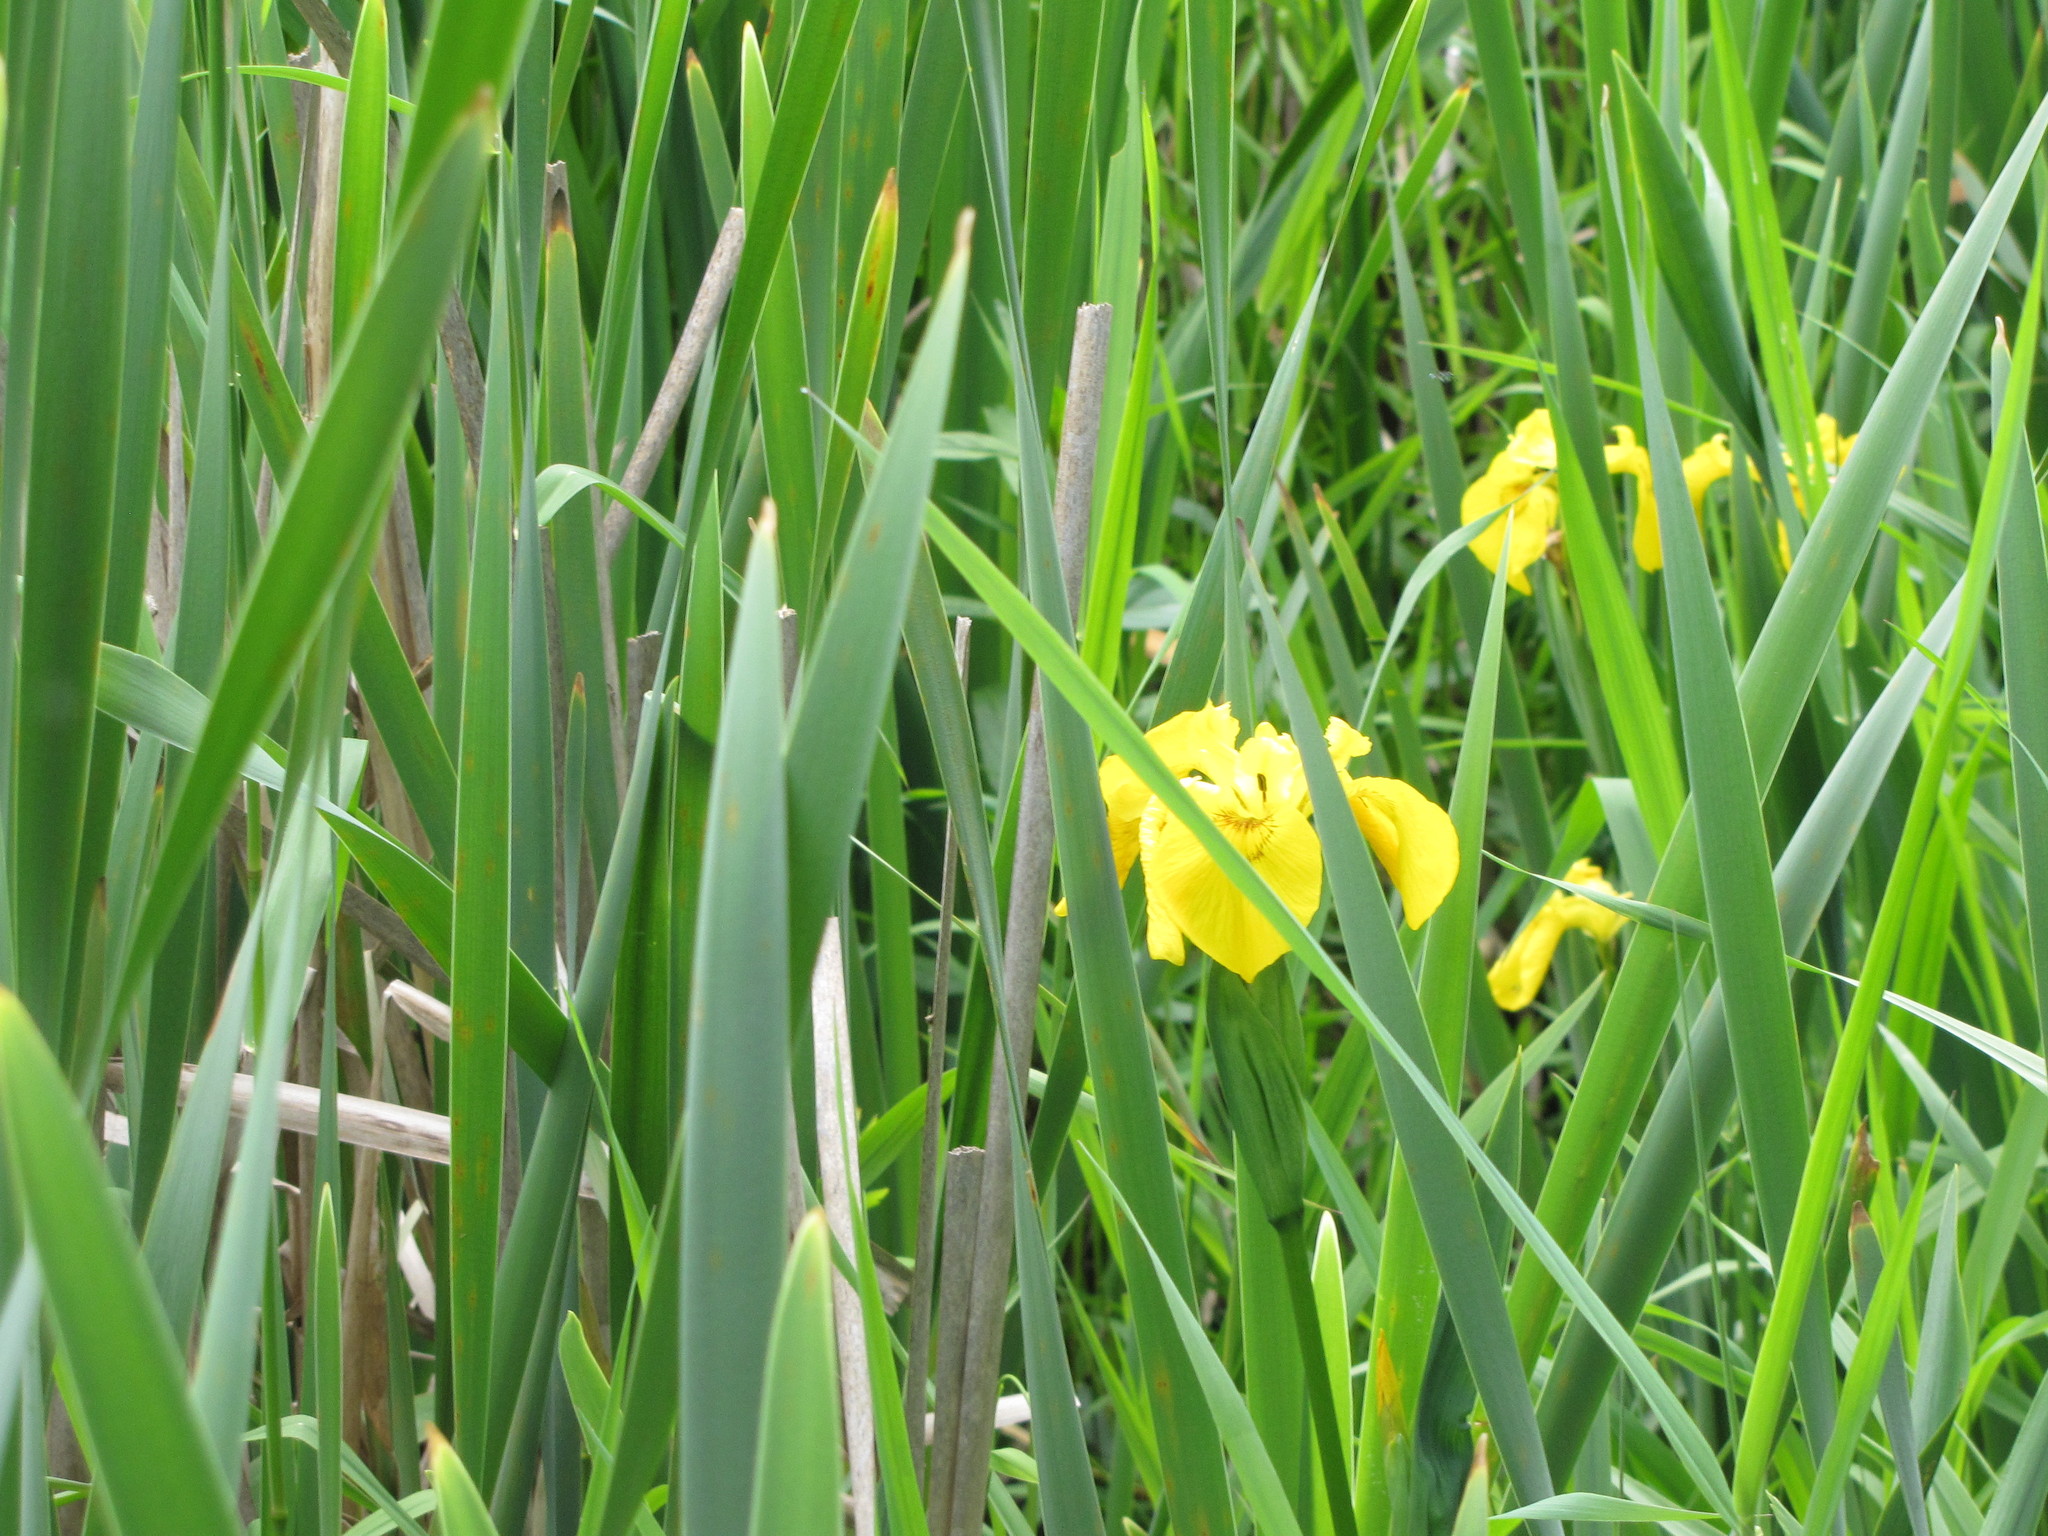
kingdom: Plantae
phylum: Tracheophyta
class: Liliopsida
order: Asparagales
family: Iridaceae
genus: Iris
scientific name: Iris pseudacorus
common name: Yellow flag
